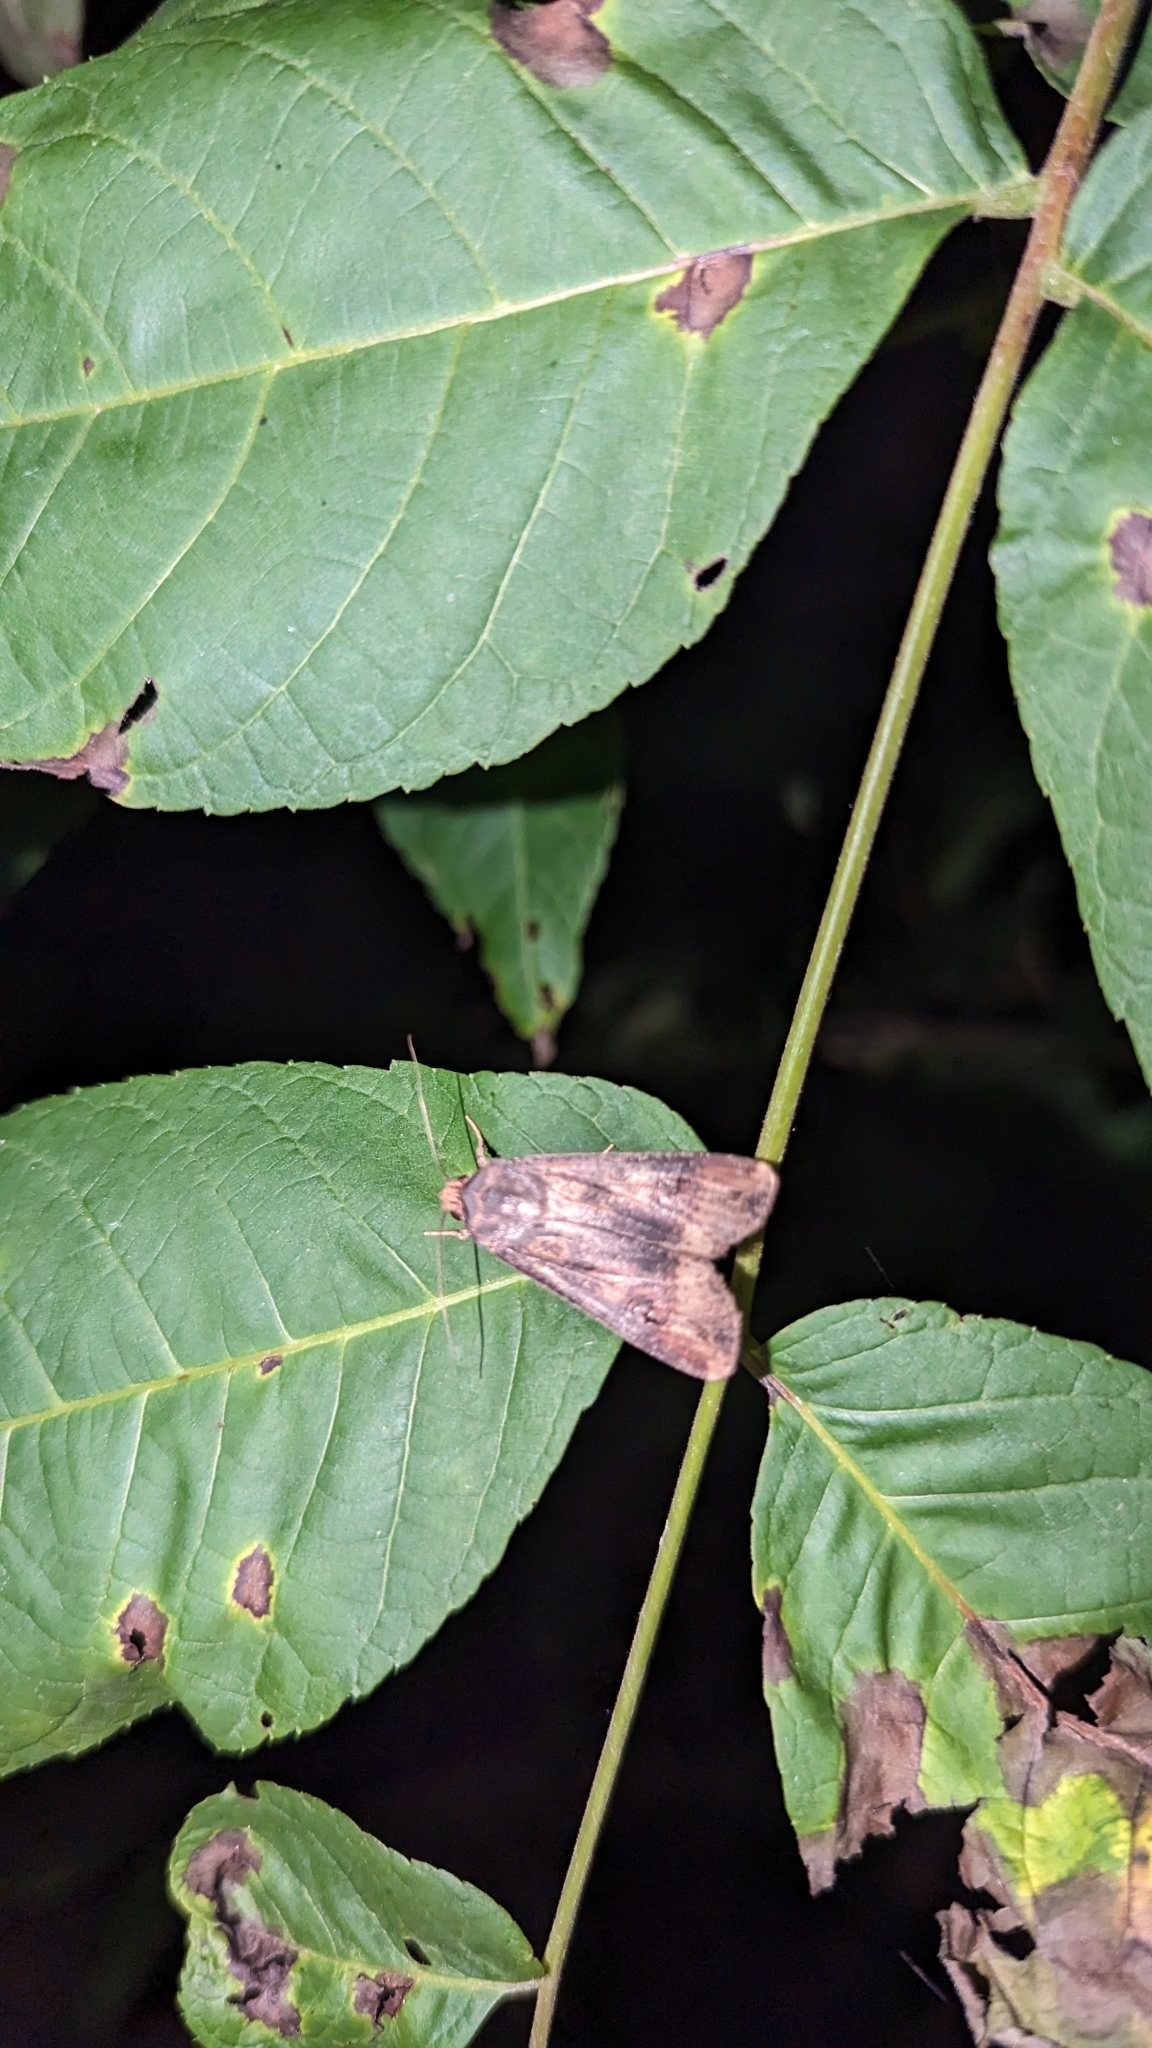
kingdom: Animalia
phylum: Arthropoda
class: Insecta
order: Lepidoptera
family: Noctuidae
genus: Agrotis
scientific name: Agrotis ipsilon
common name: Dark sword-grass
